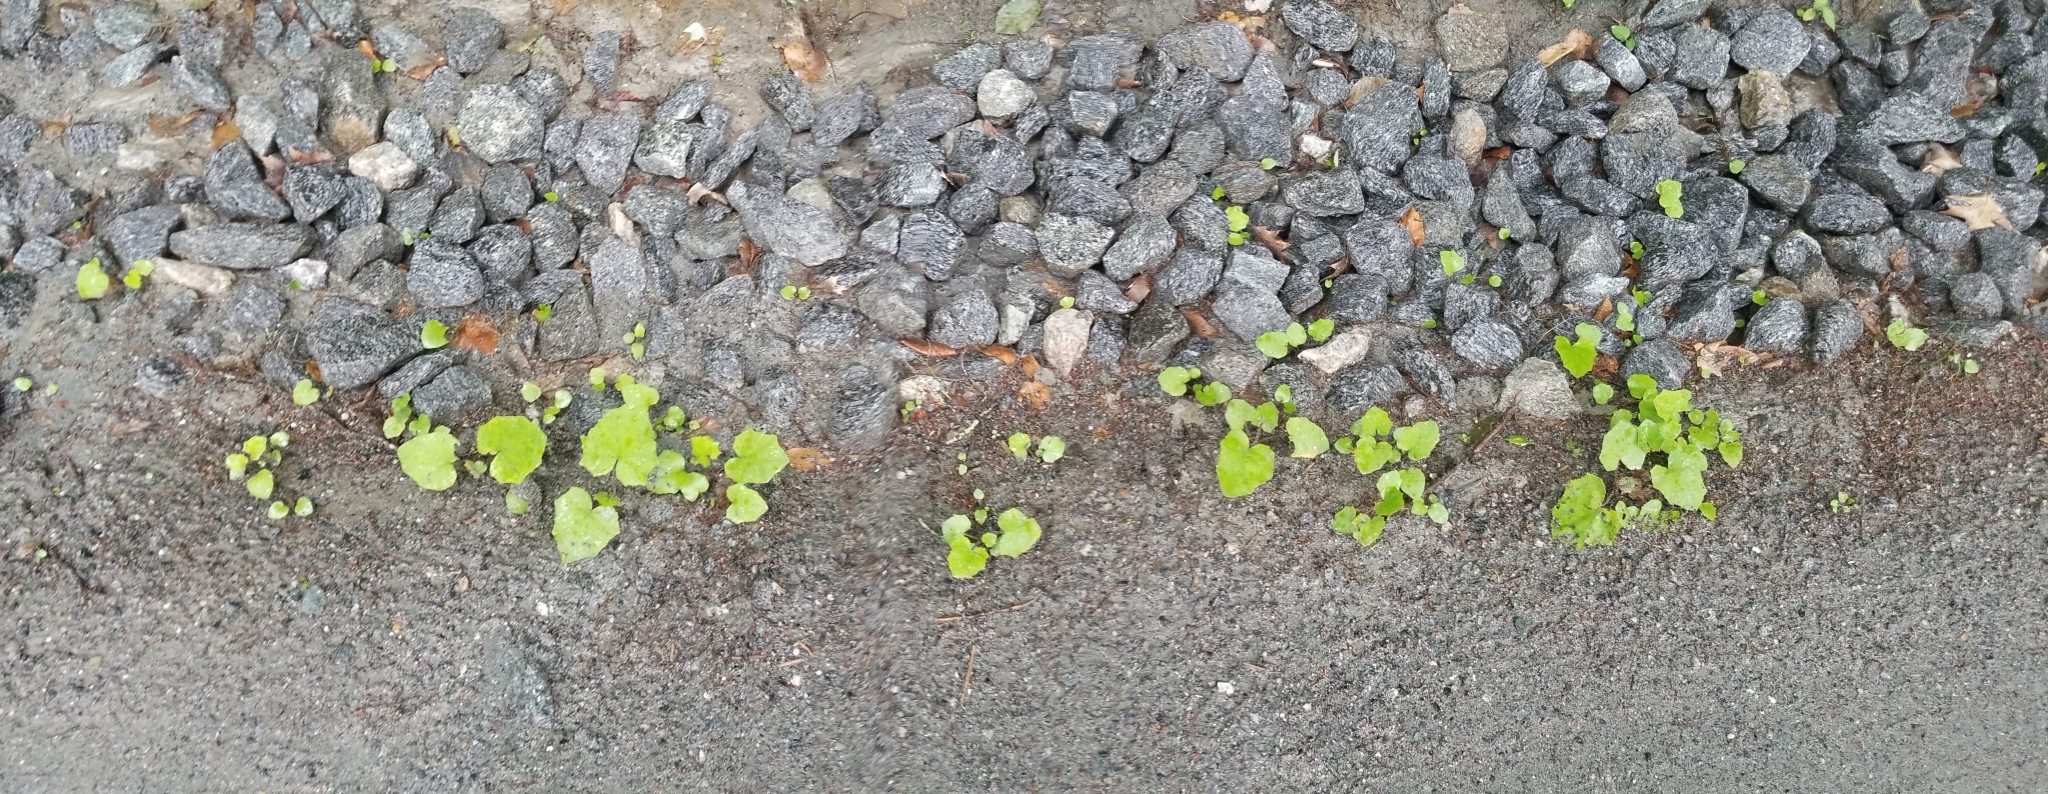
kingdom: Plantae
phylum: Tracheophyta
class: Magnoliopsida
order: Asterales
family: Asteraceae
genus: Tussilago
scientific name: Tussilago farfara
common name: Coltsfoot
